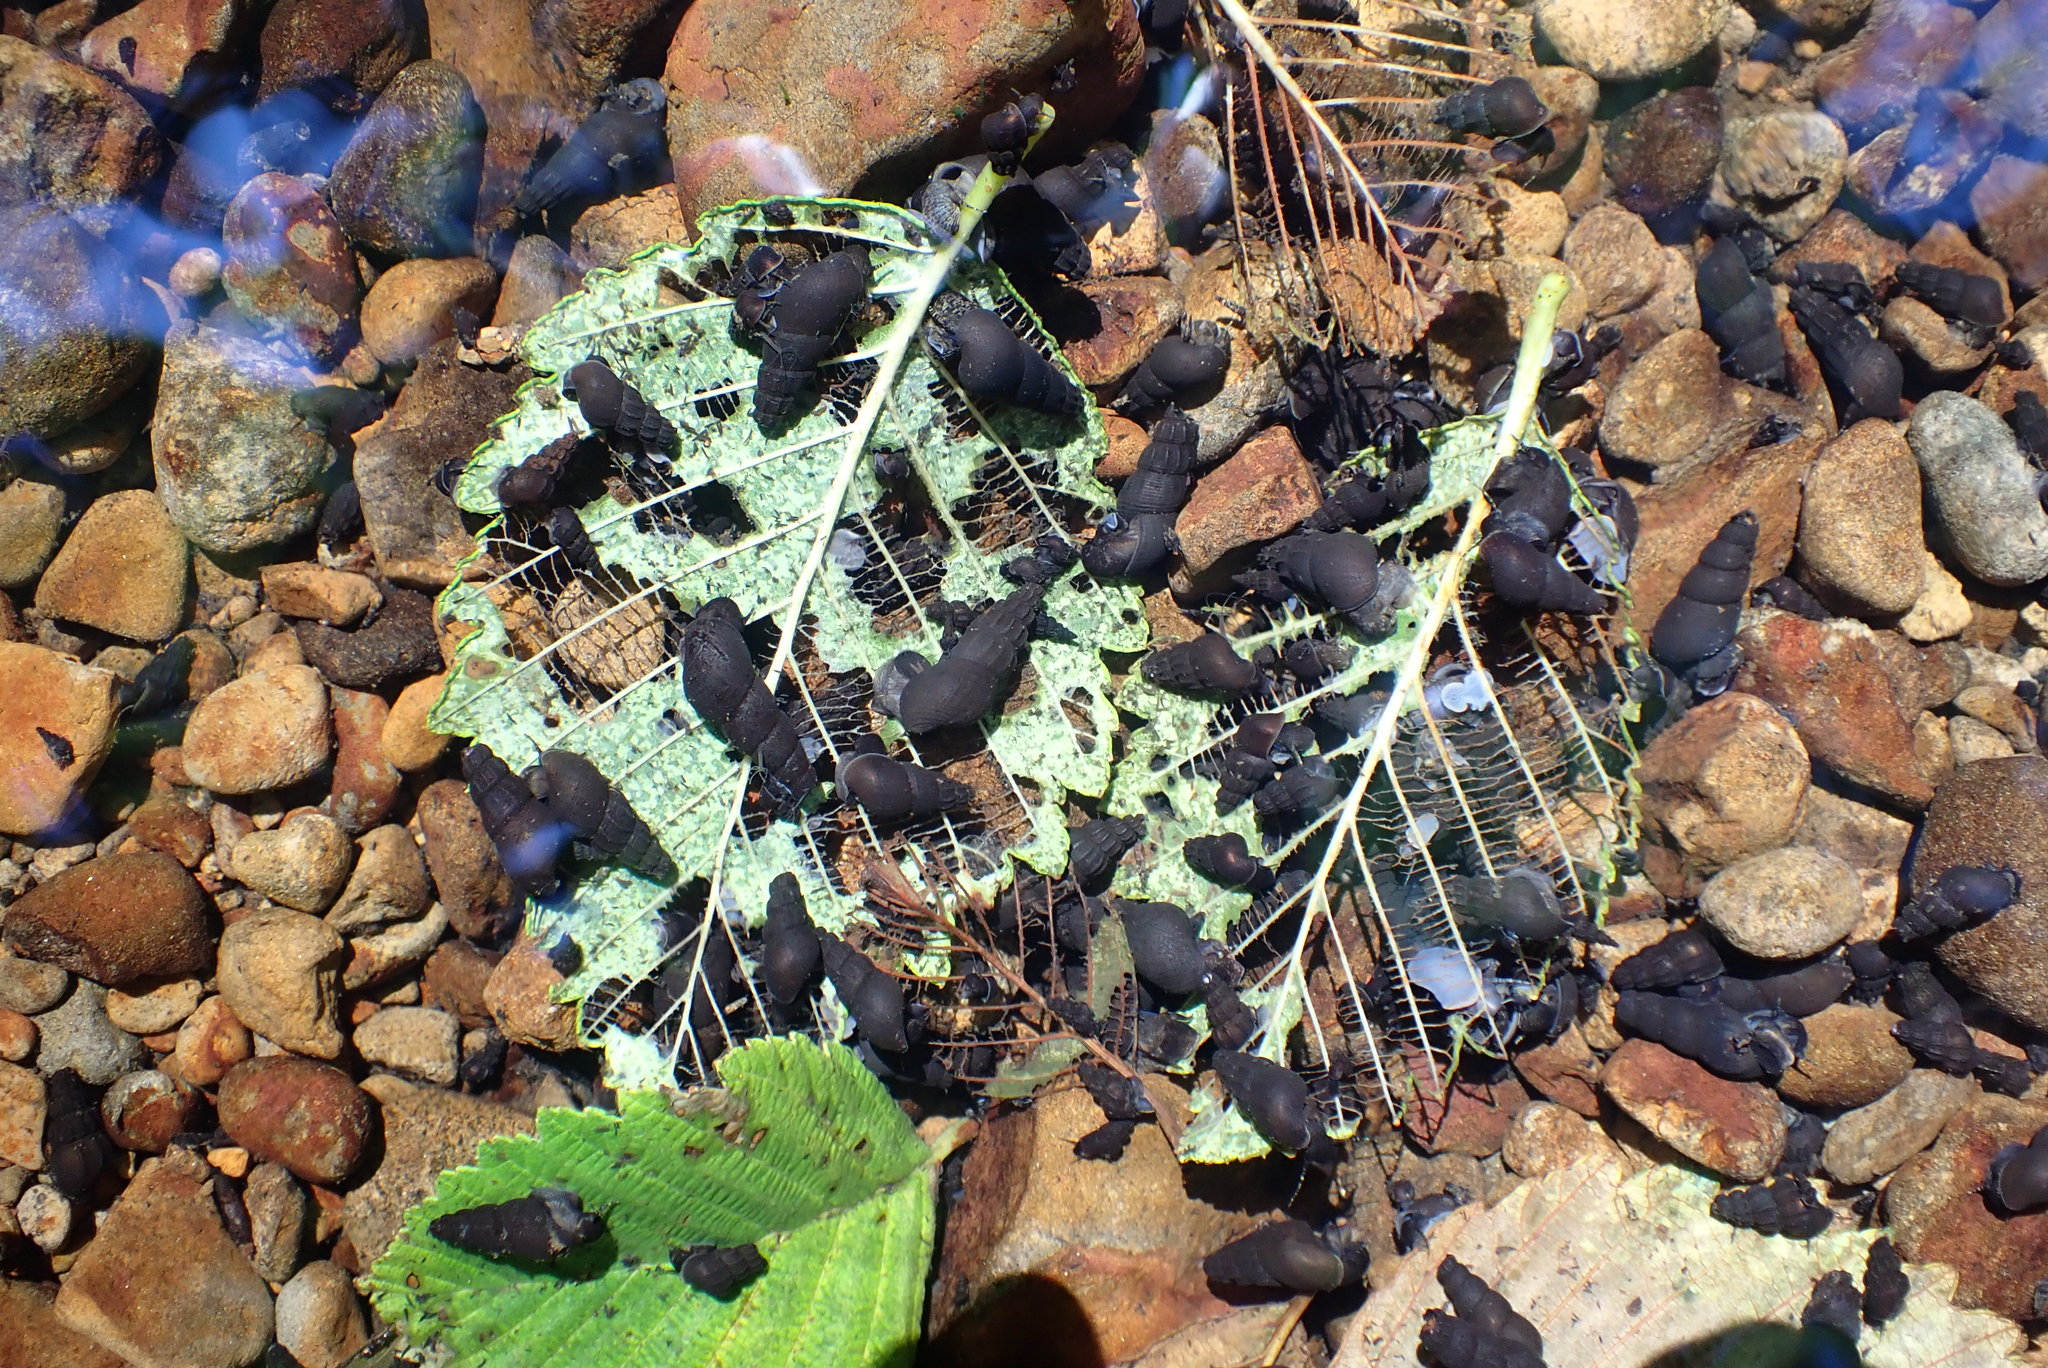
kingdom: Animalia
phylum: Mollusca
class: Gastropoda
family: Semisulcospiridae
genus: Juga
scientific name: Juga plicifera
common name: Pleated juga
